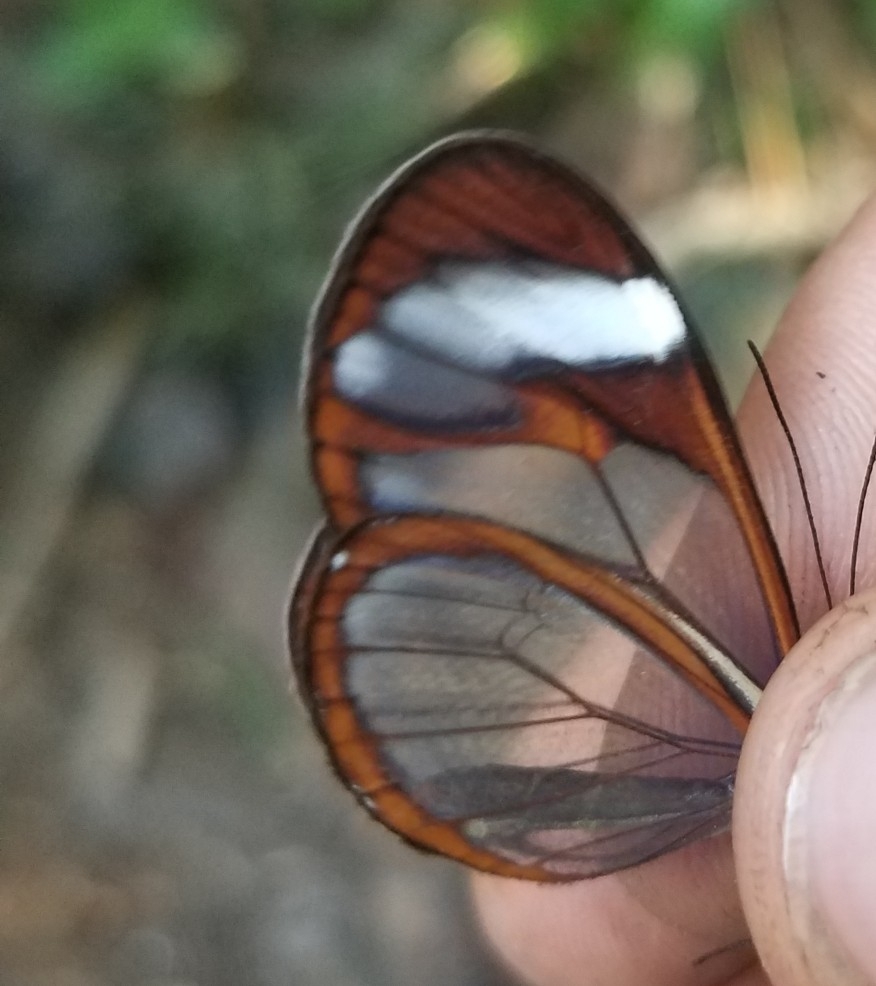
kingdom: Animalia
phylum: Arthropoda
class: Insecta
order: Lepidoptera
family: Nymphalidae
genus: Ithomia
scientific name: Ithomia patilla
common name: Patilla clearwing
